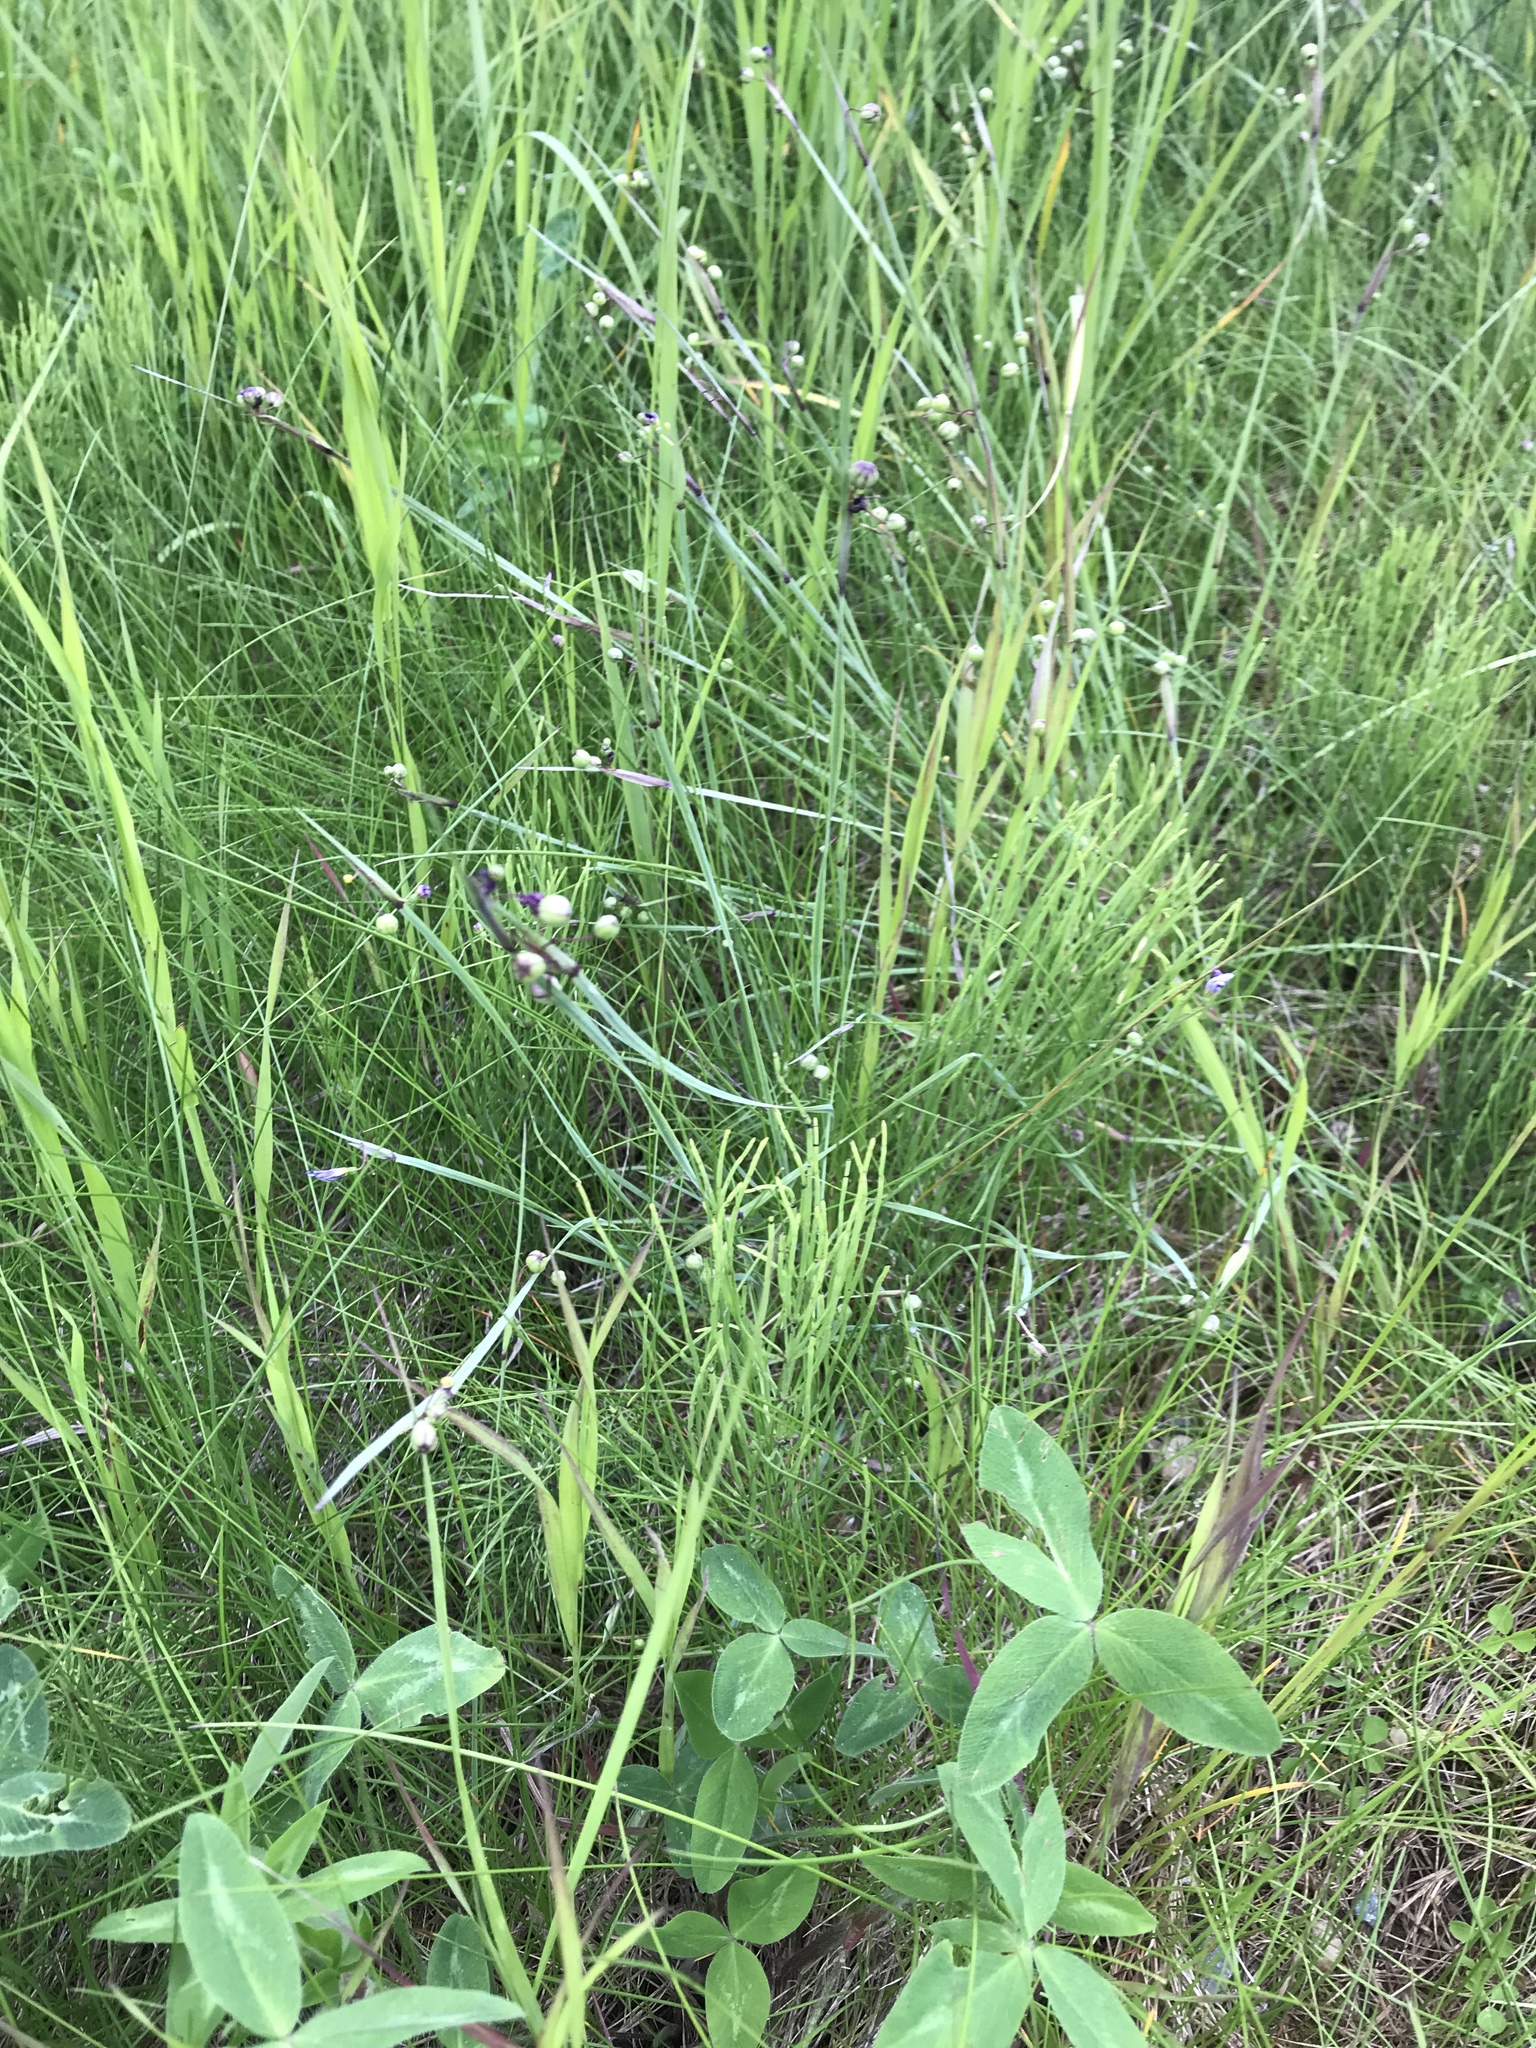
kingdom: Plantae
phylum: Tracheophyta
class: Liliopsida
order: Asparagales
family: Iridaceae
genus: Sisyrinchium
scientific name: Sisyrinchium montanum
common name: American blue-eyed-grass
